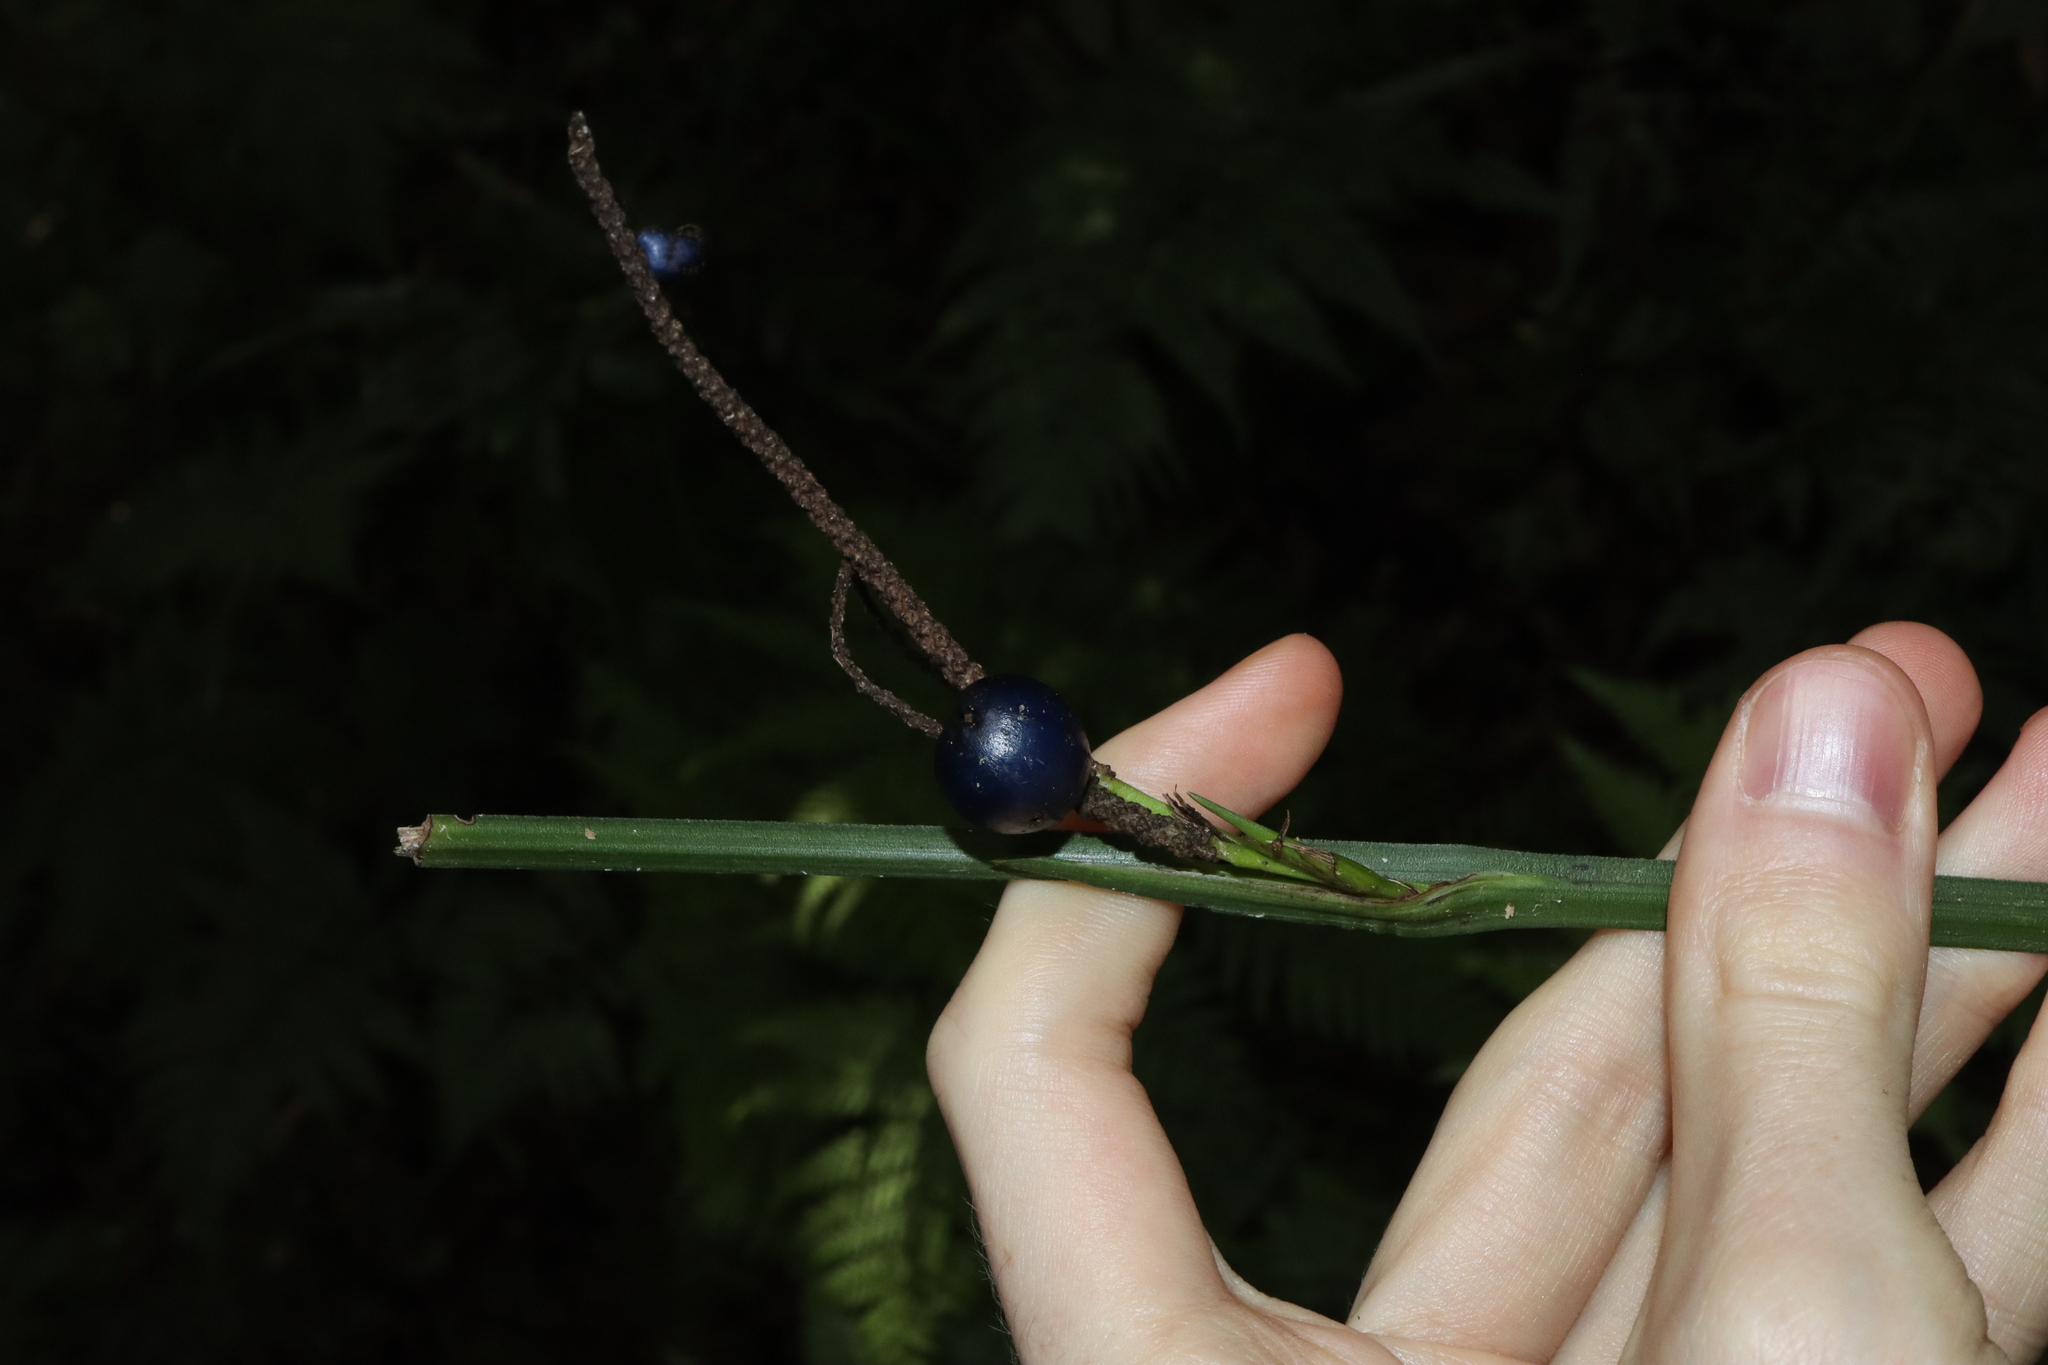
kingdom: Plantae
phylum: Tracheophyta
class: Liliopsida
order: Alismatales
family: Araceae
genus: Gymnostachys
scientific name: Gymnostachys anceps
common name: Settler's-flax
